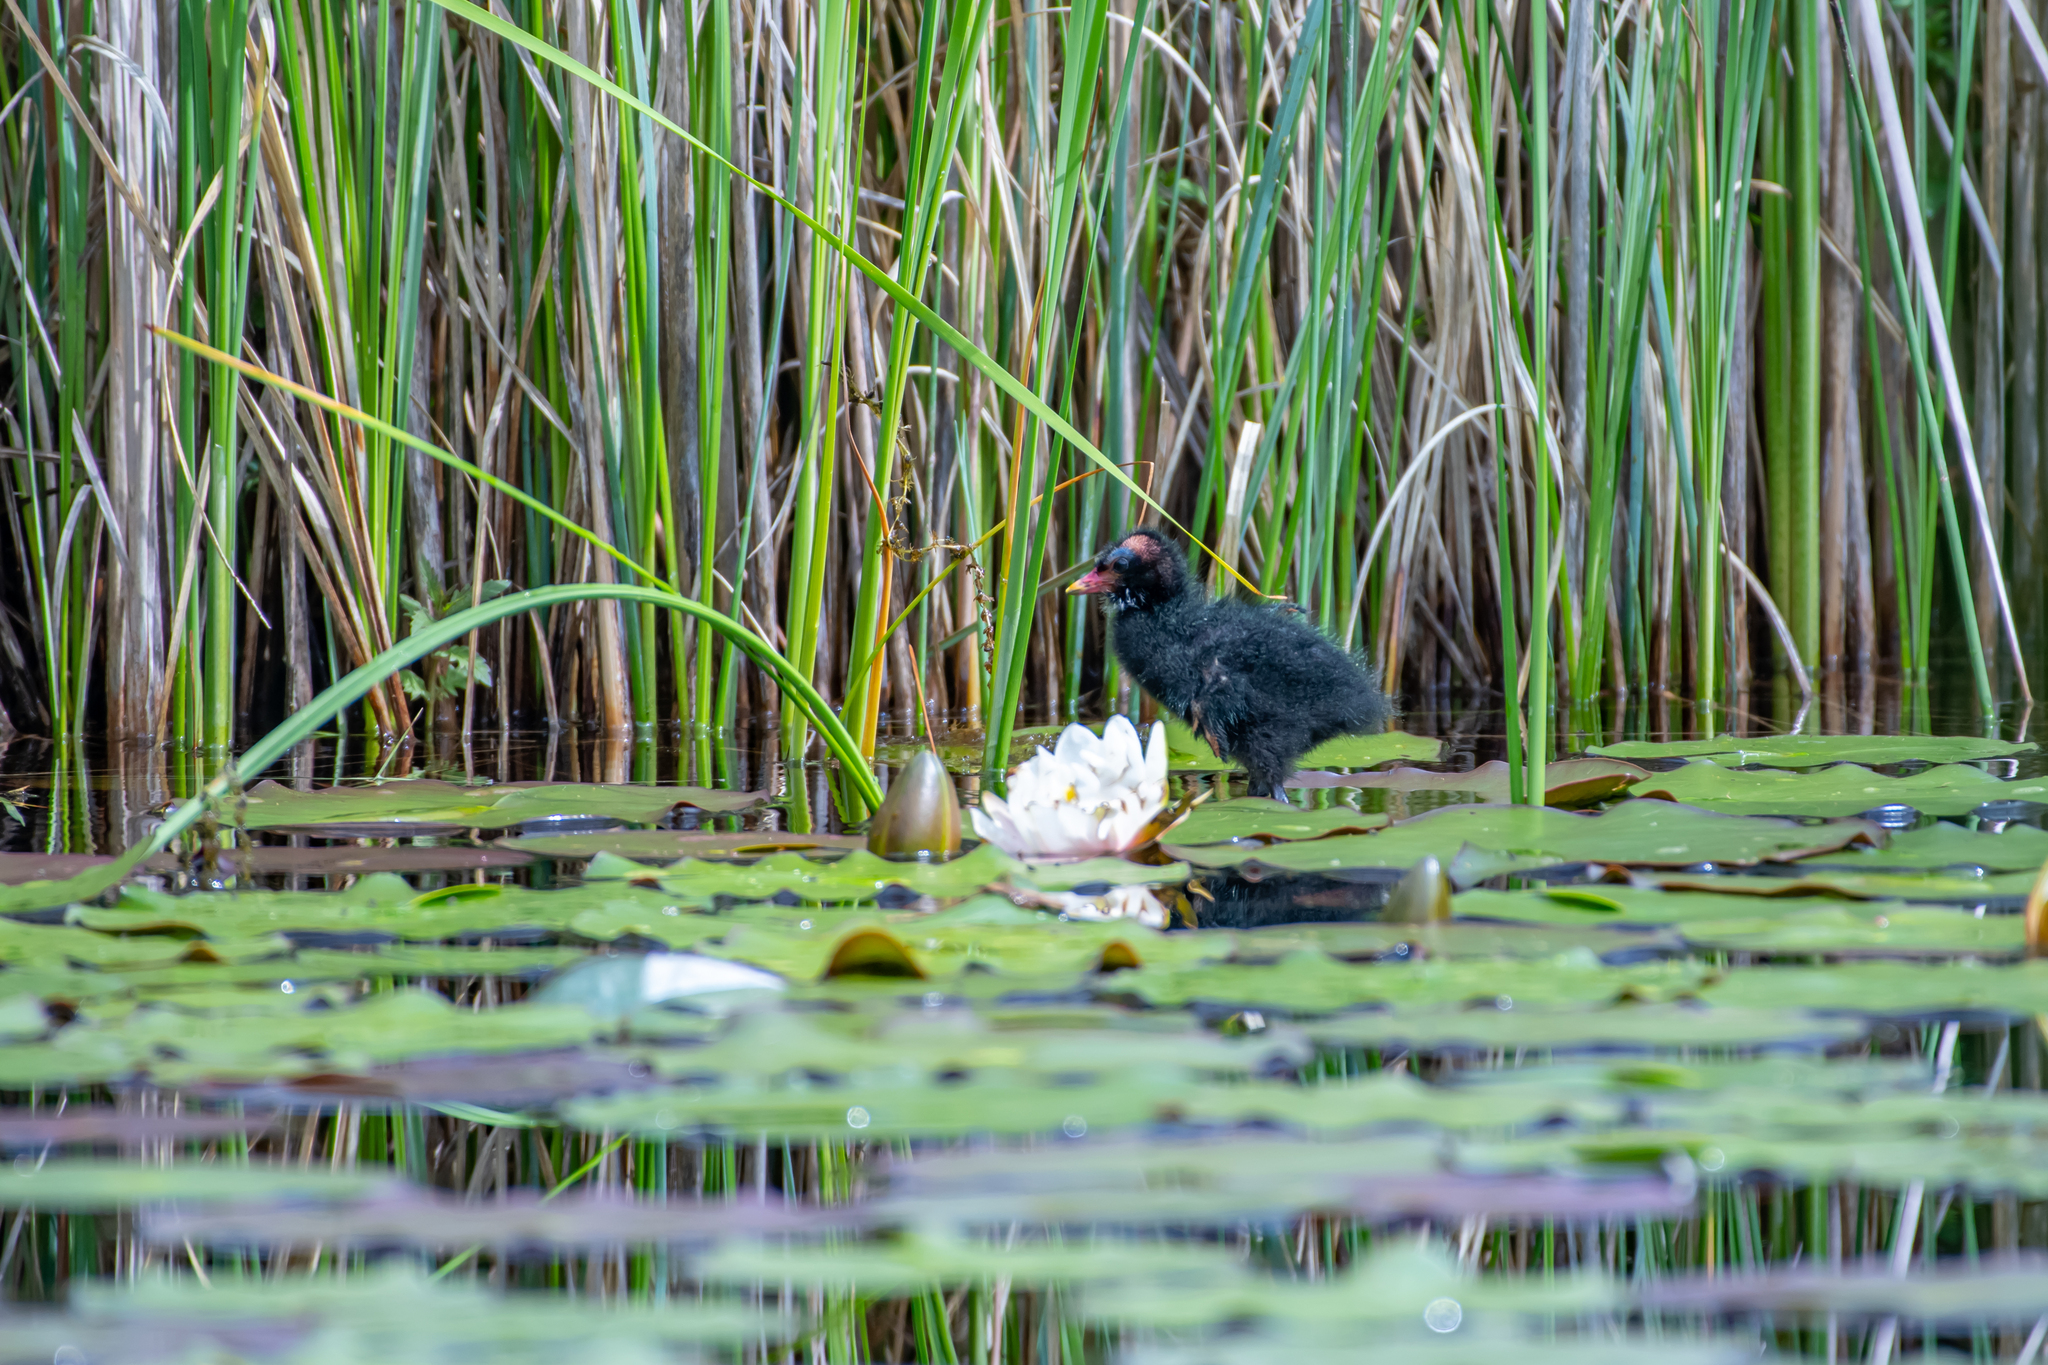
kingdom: Animalia
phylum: Chordata
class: Aves
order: Gruiformes
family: Rallidae
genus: Gallinula
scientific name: Gallinula chloropus
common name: Common moorhen
